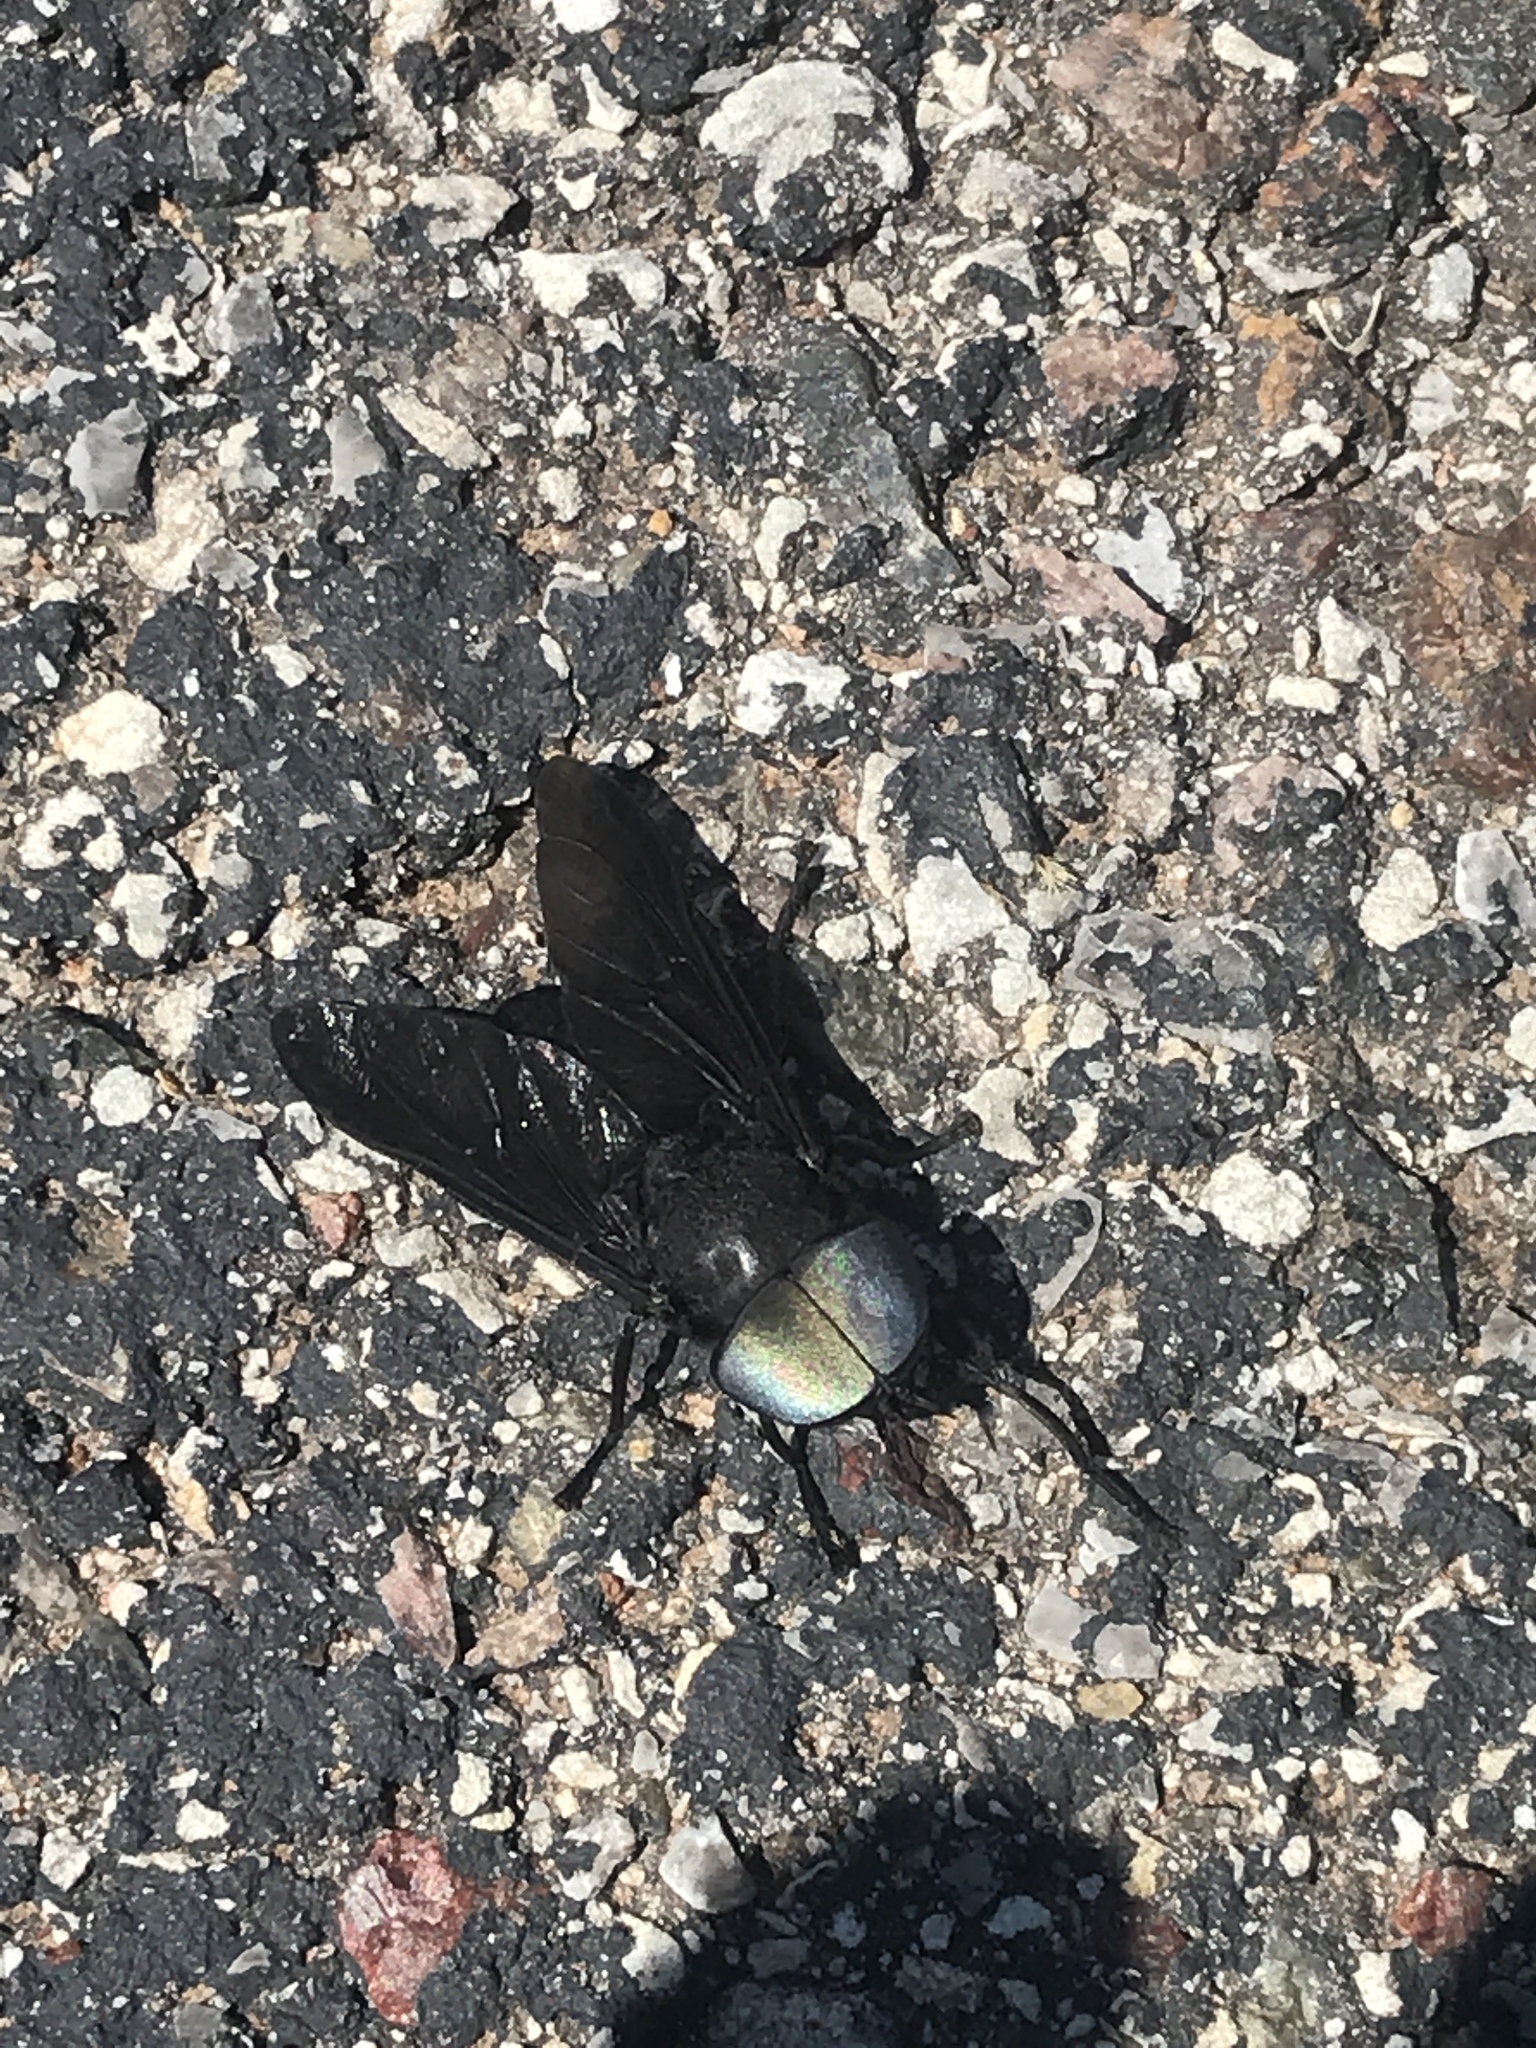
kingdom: Animalia
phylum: Arthropoda
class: Insecta
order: Diptera
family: Tabanidae
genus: Tabanus
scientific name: Tabanus atratus
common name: Black horse fly
